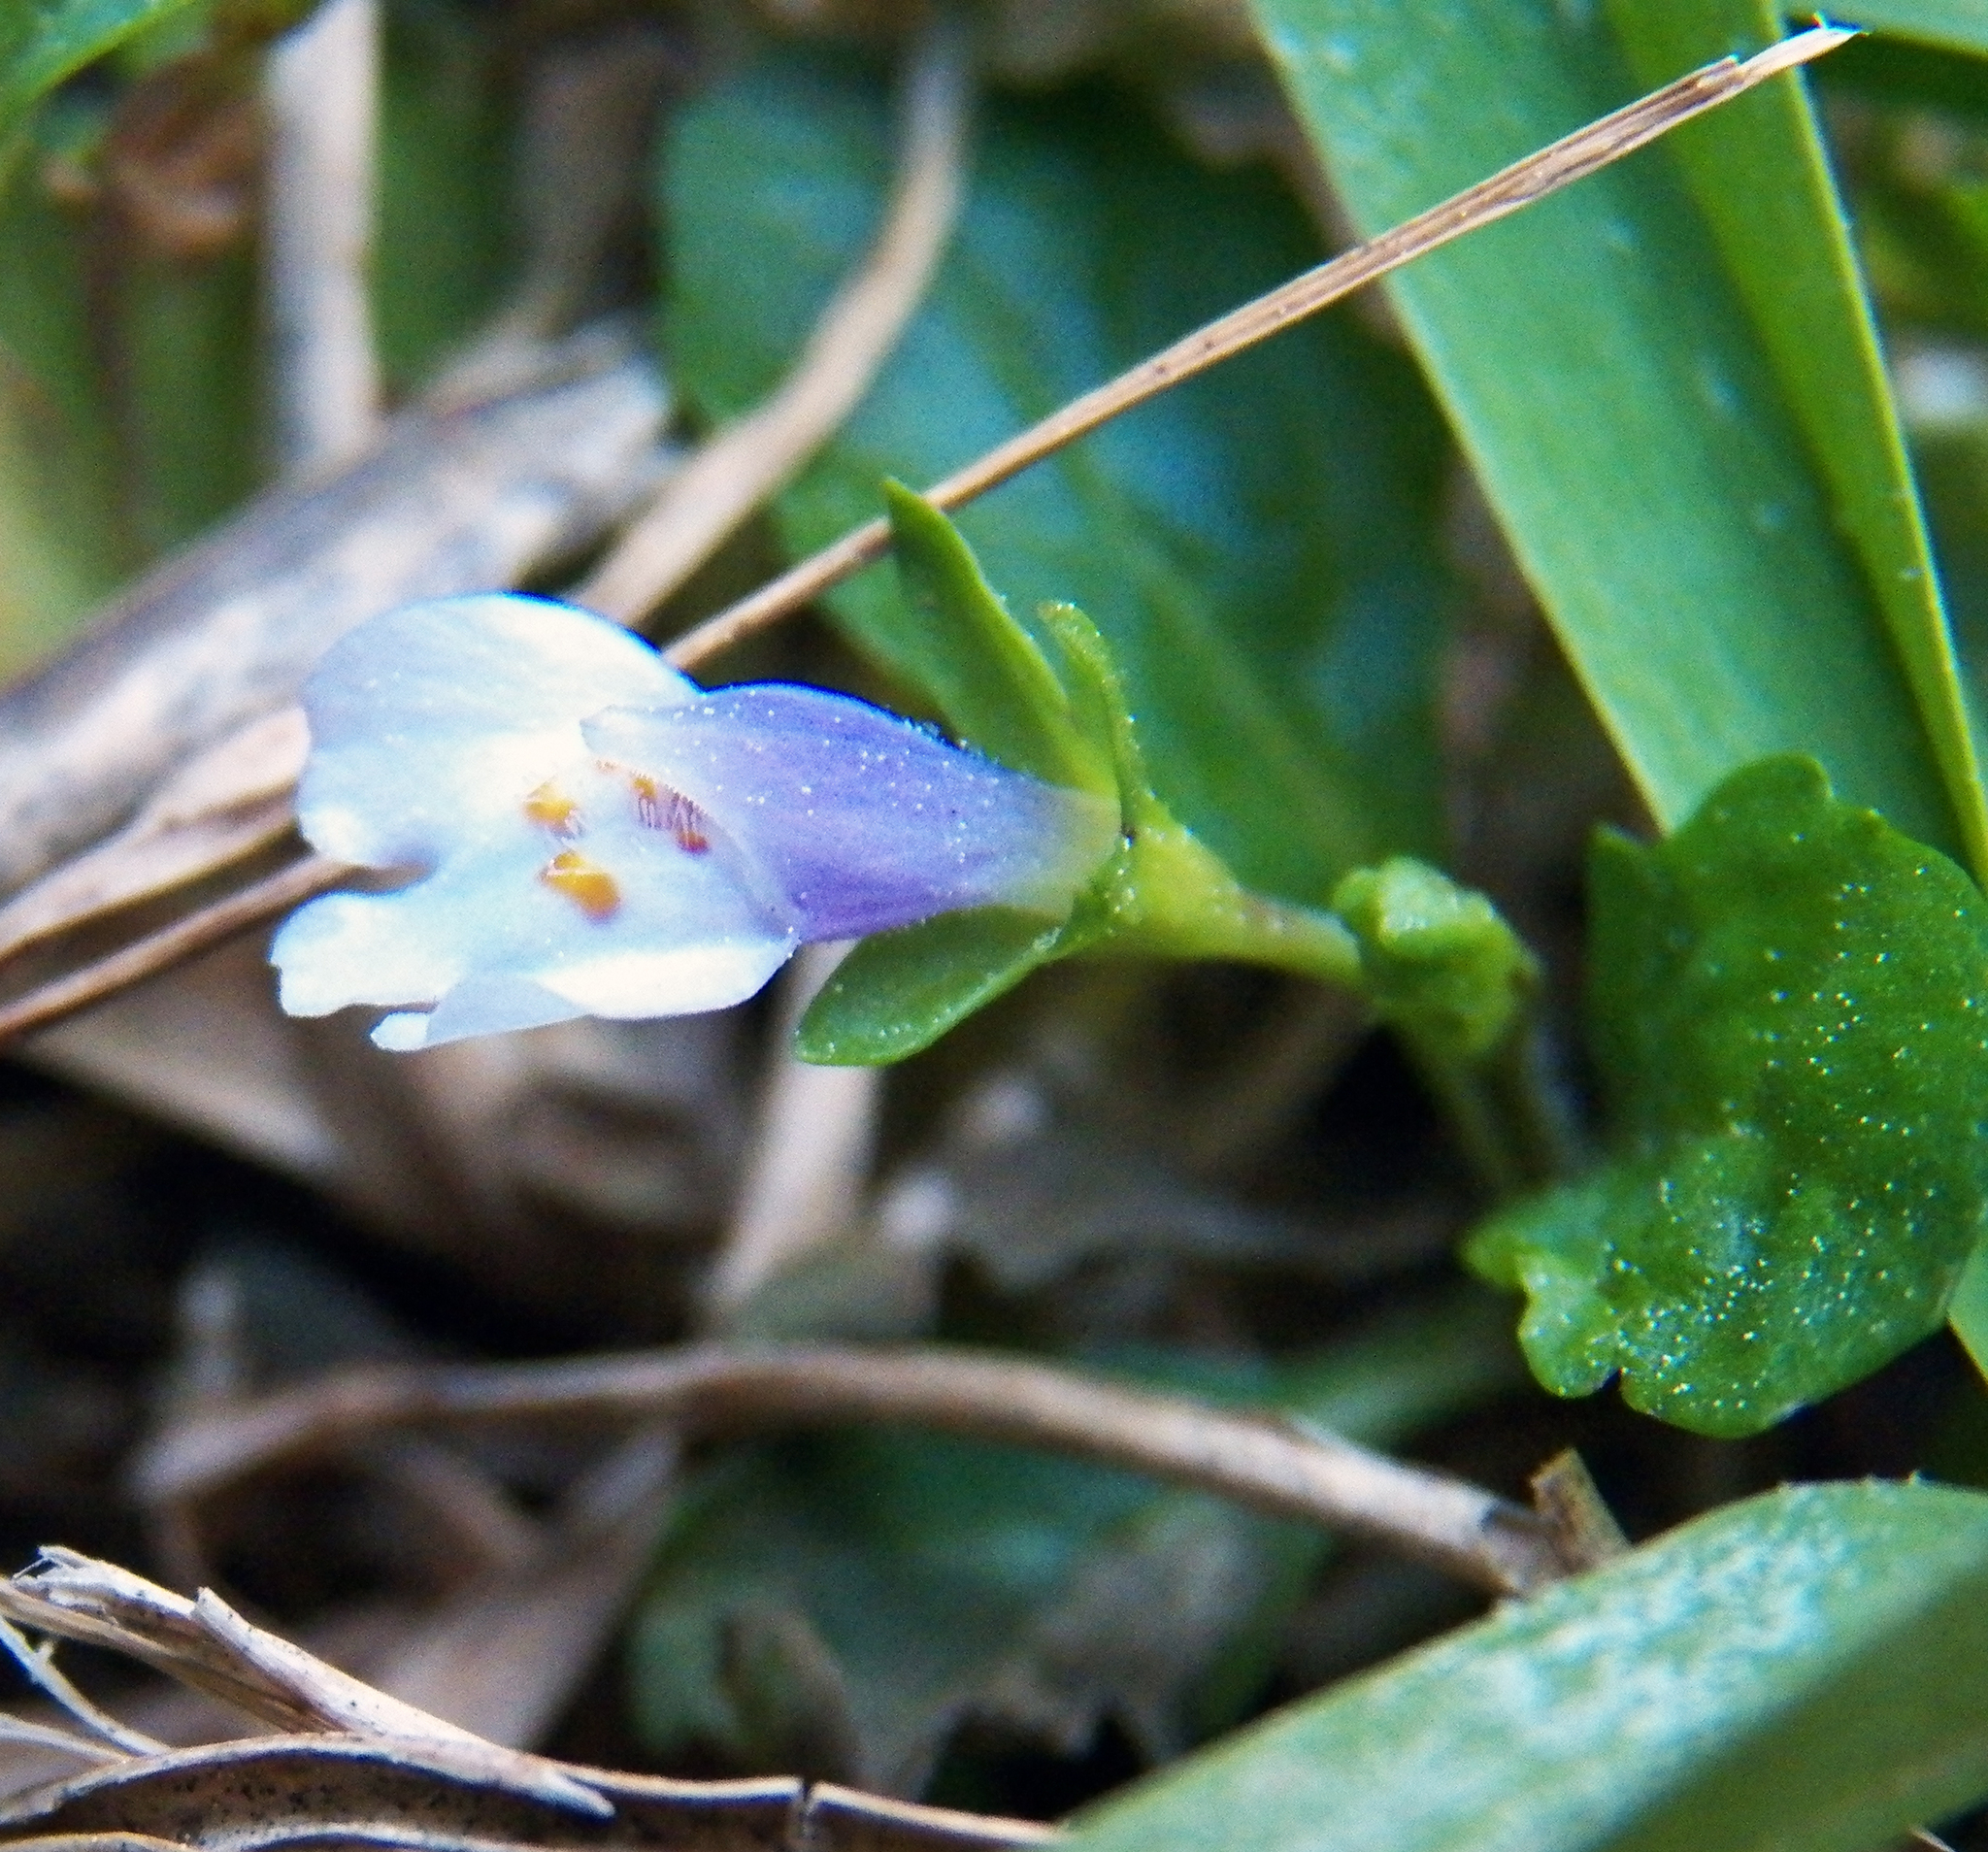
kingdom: Plantae
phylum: Tracheophyta
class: Magnoliopsida
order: Lamiales
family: Mazaceae
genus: Mazus
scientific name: Mazus pumilus
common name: Japanese mazus
